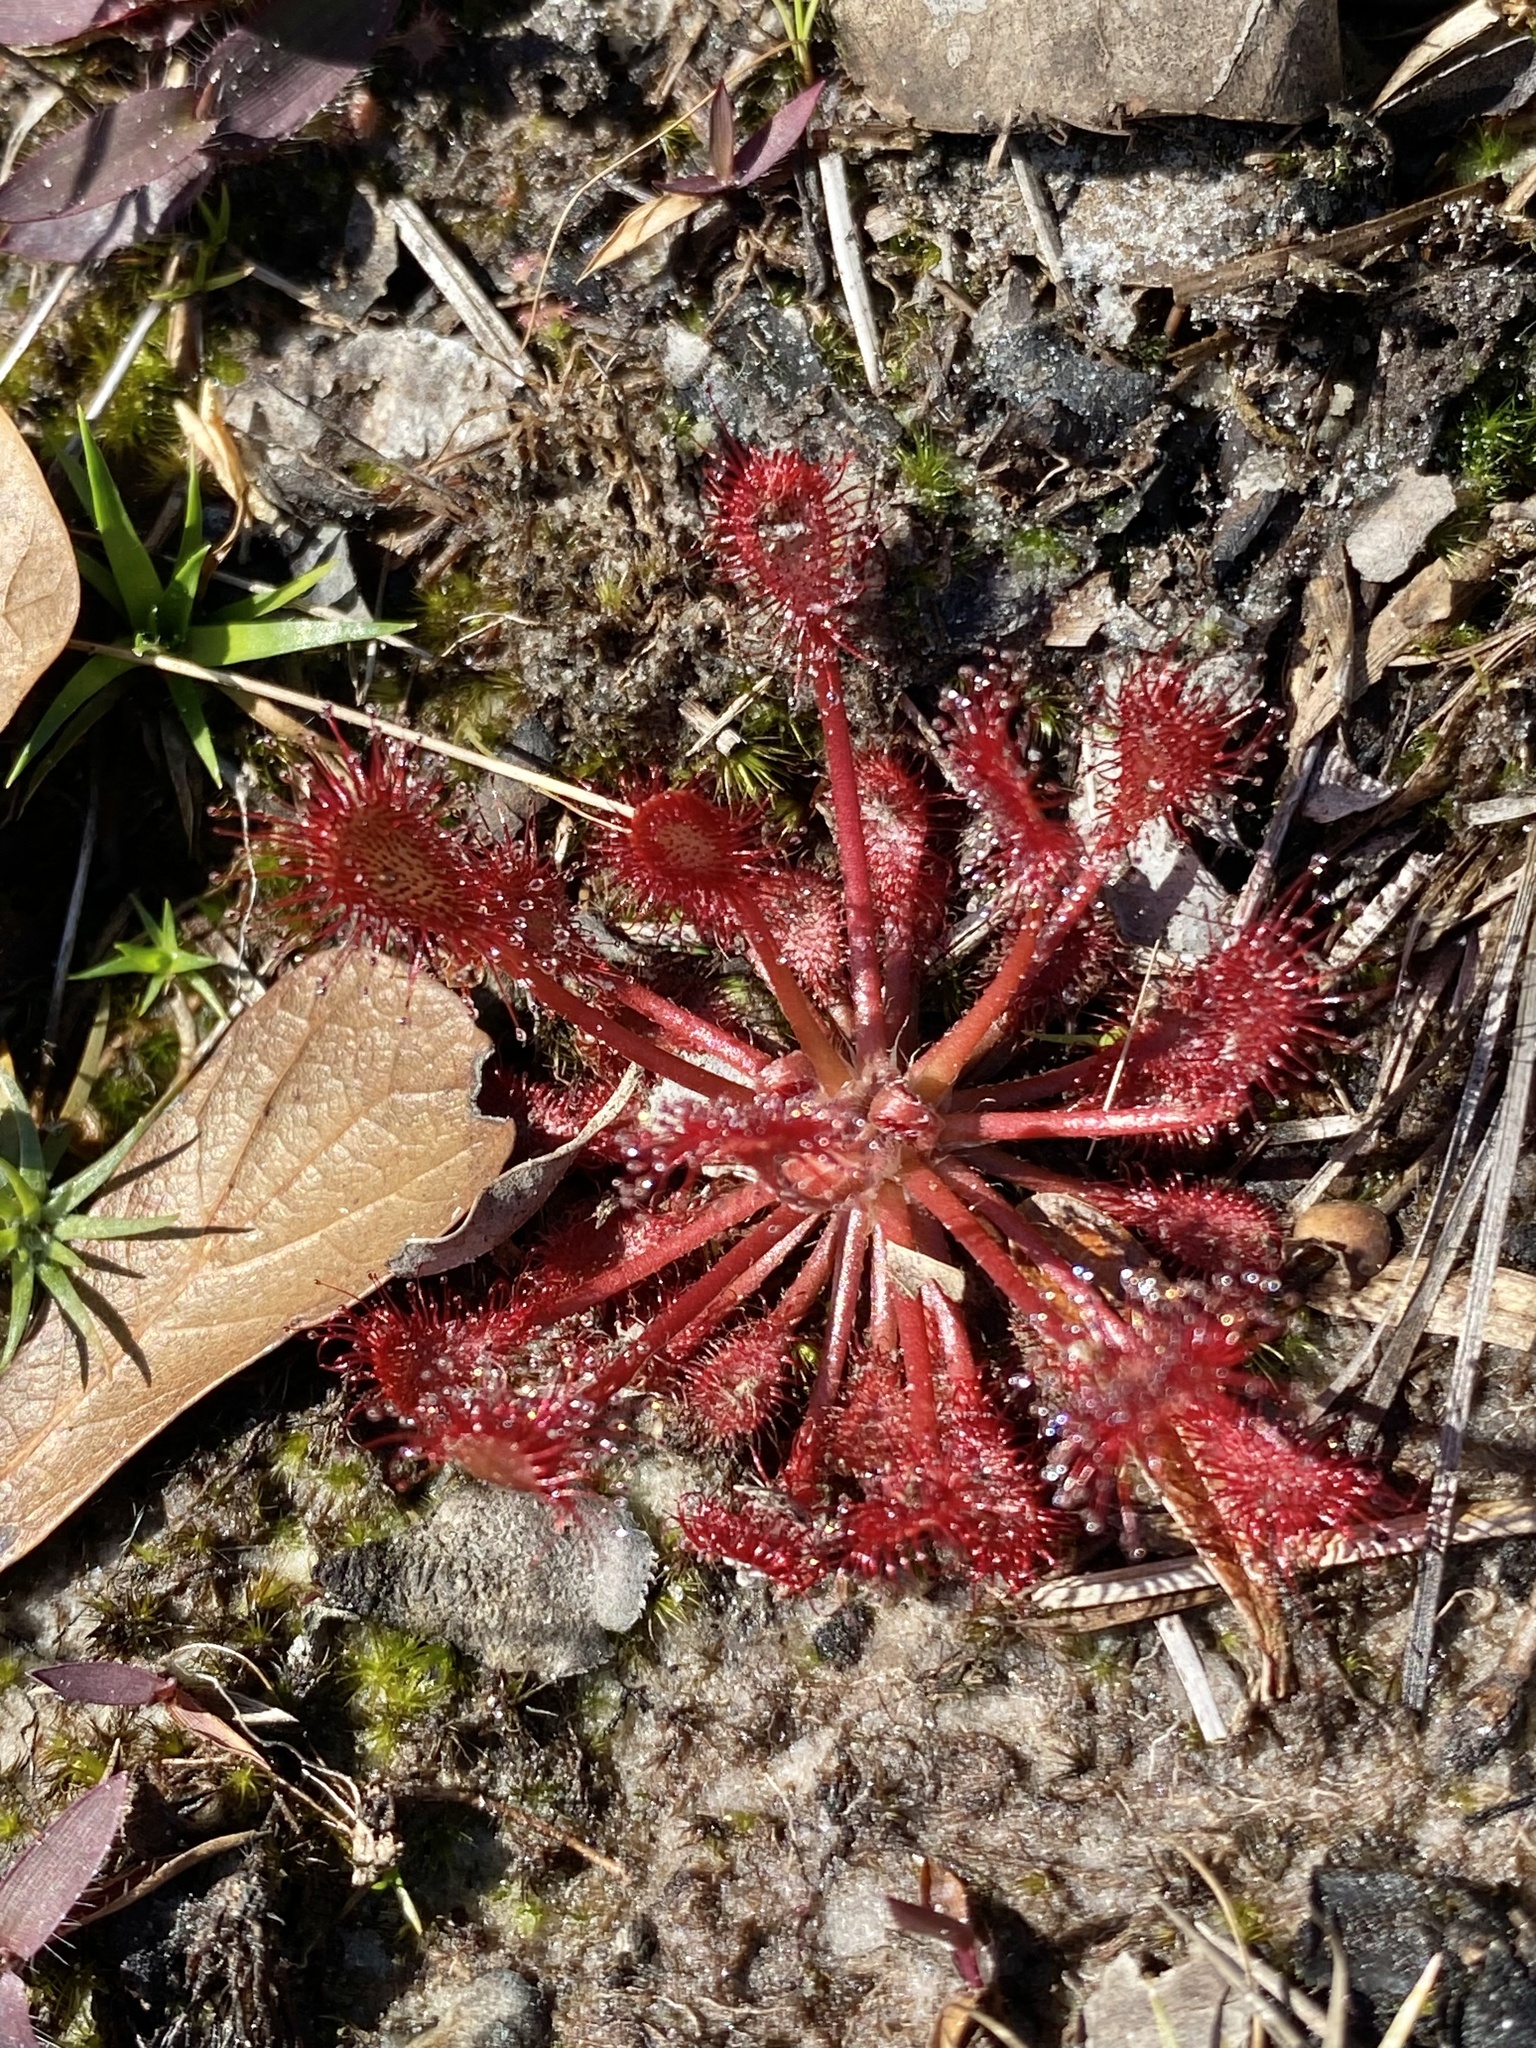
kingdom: Plantae
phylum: Tracheophyta
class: Magnoliopsida
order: Caryophyllales
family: Droseraceae
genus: Drosera
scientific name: Drosera capillaris
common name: Pink sundew
